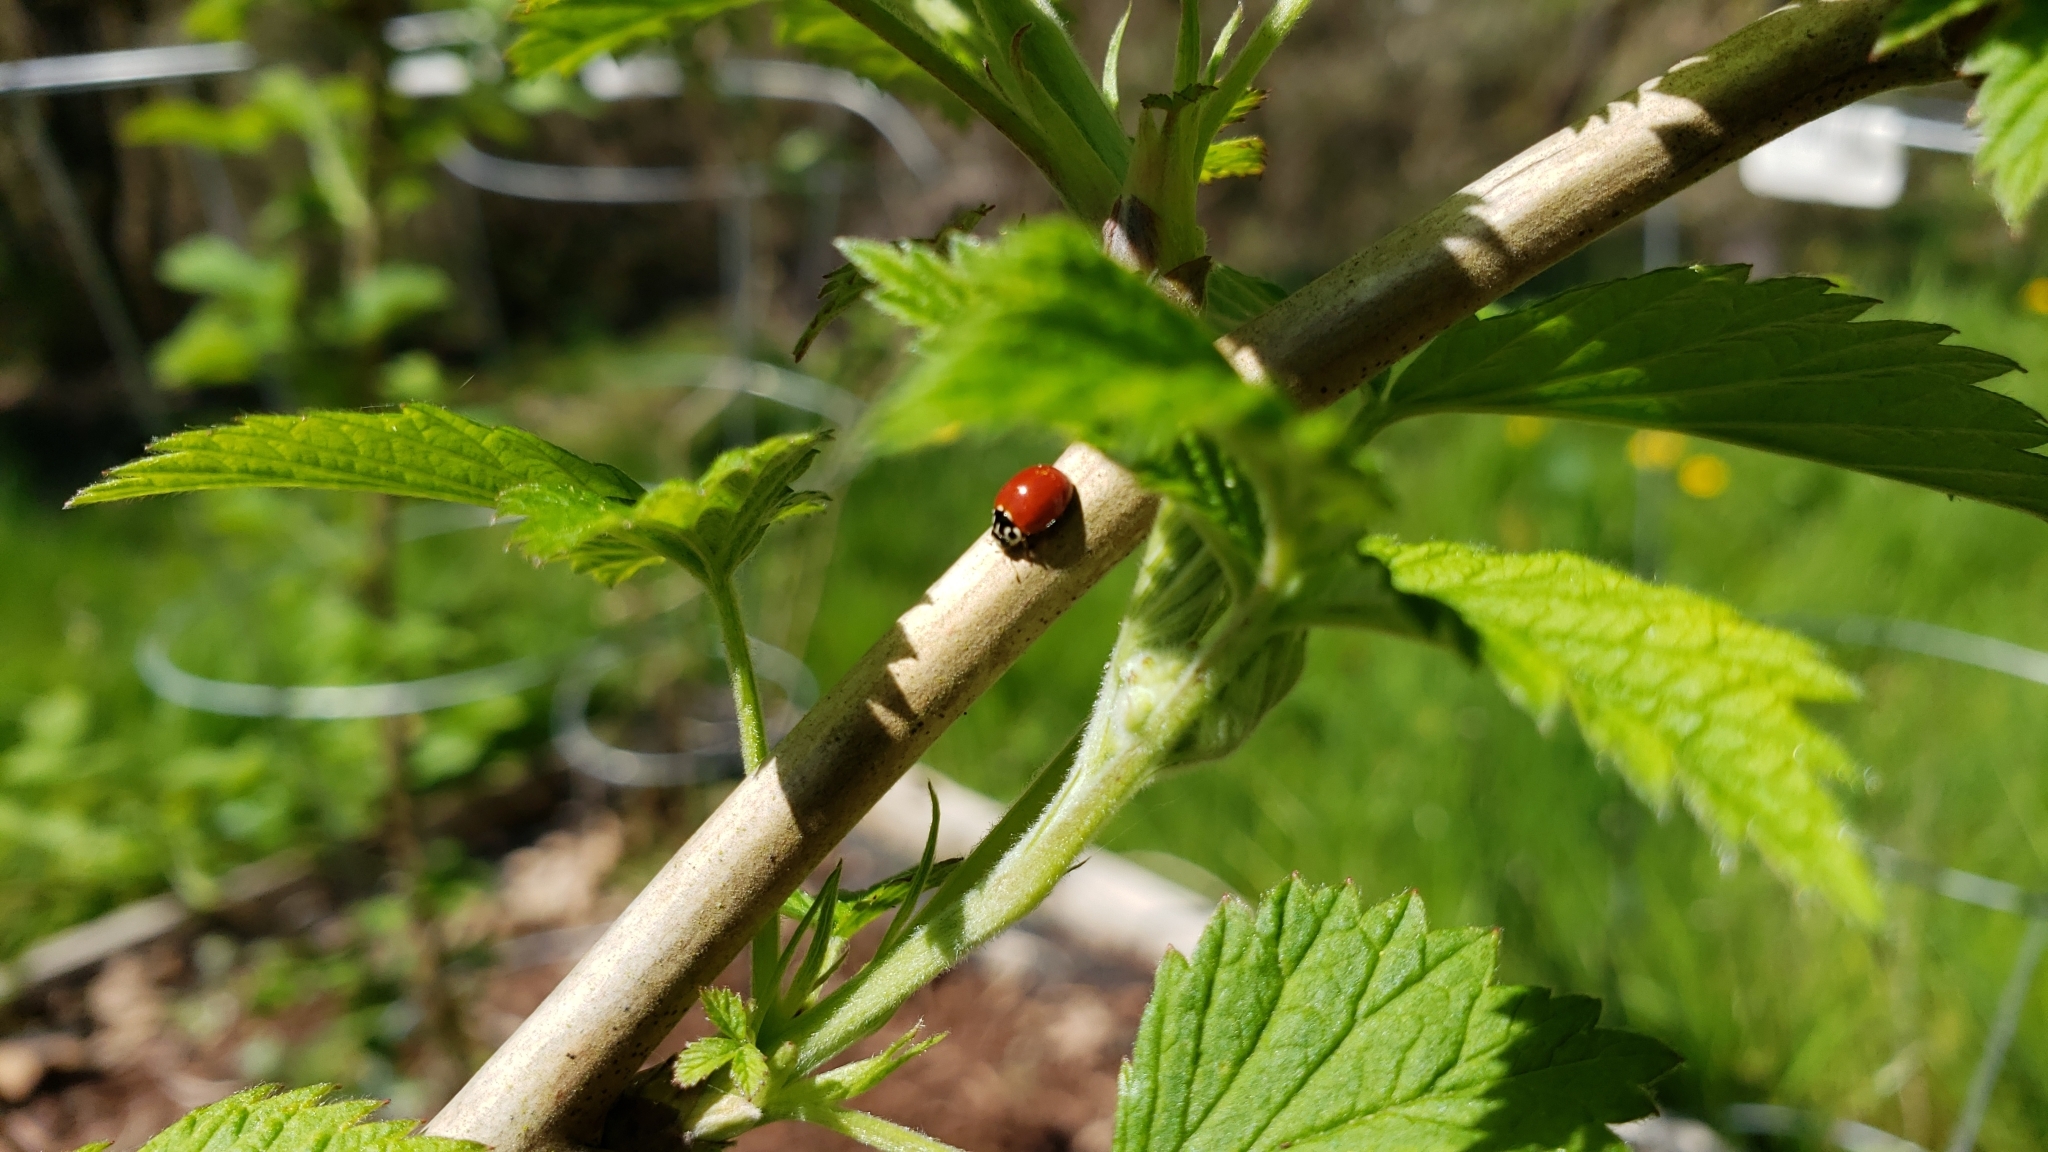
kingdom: Animalia
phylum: Arthropoda
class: Insecta
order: Coleoptera
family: Coccinellidae
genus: Cycloneda
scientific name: Cycloneda polita
